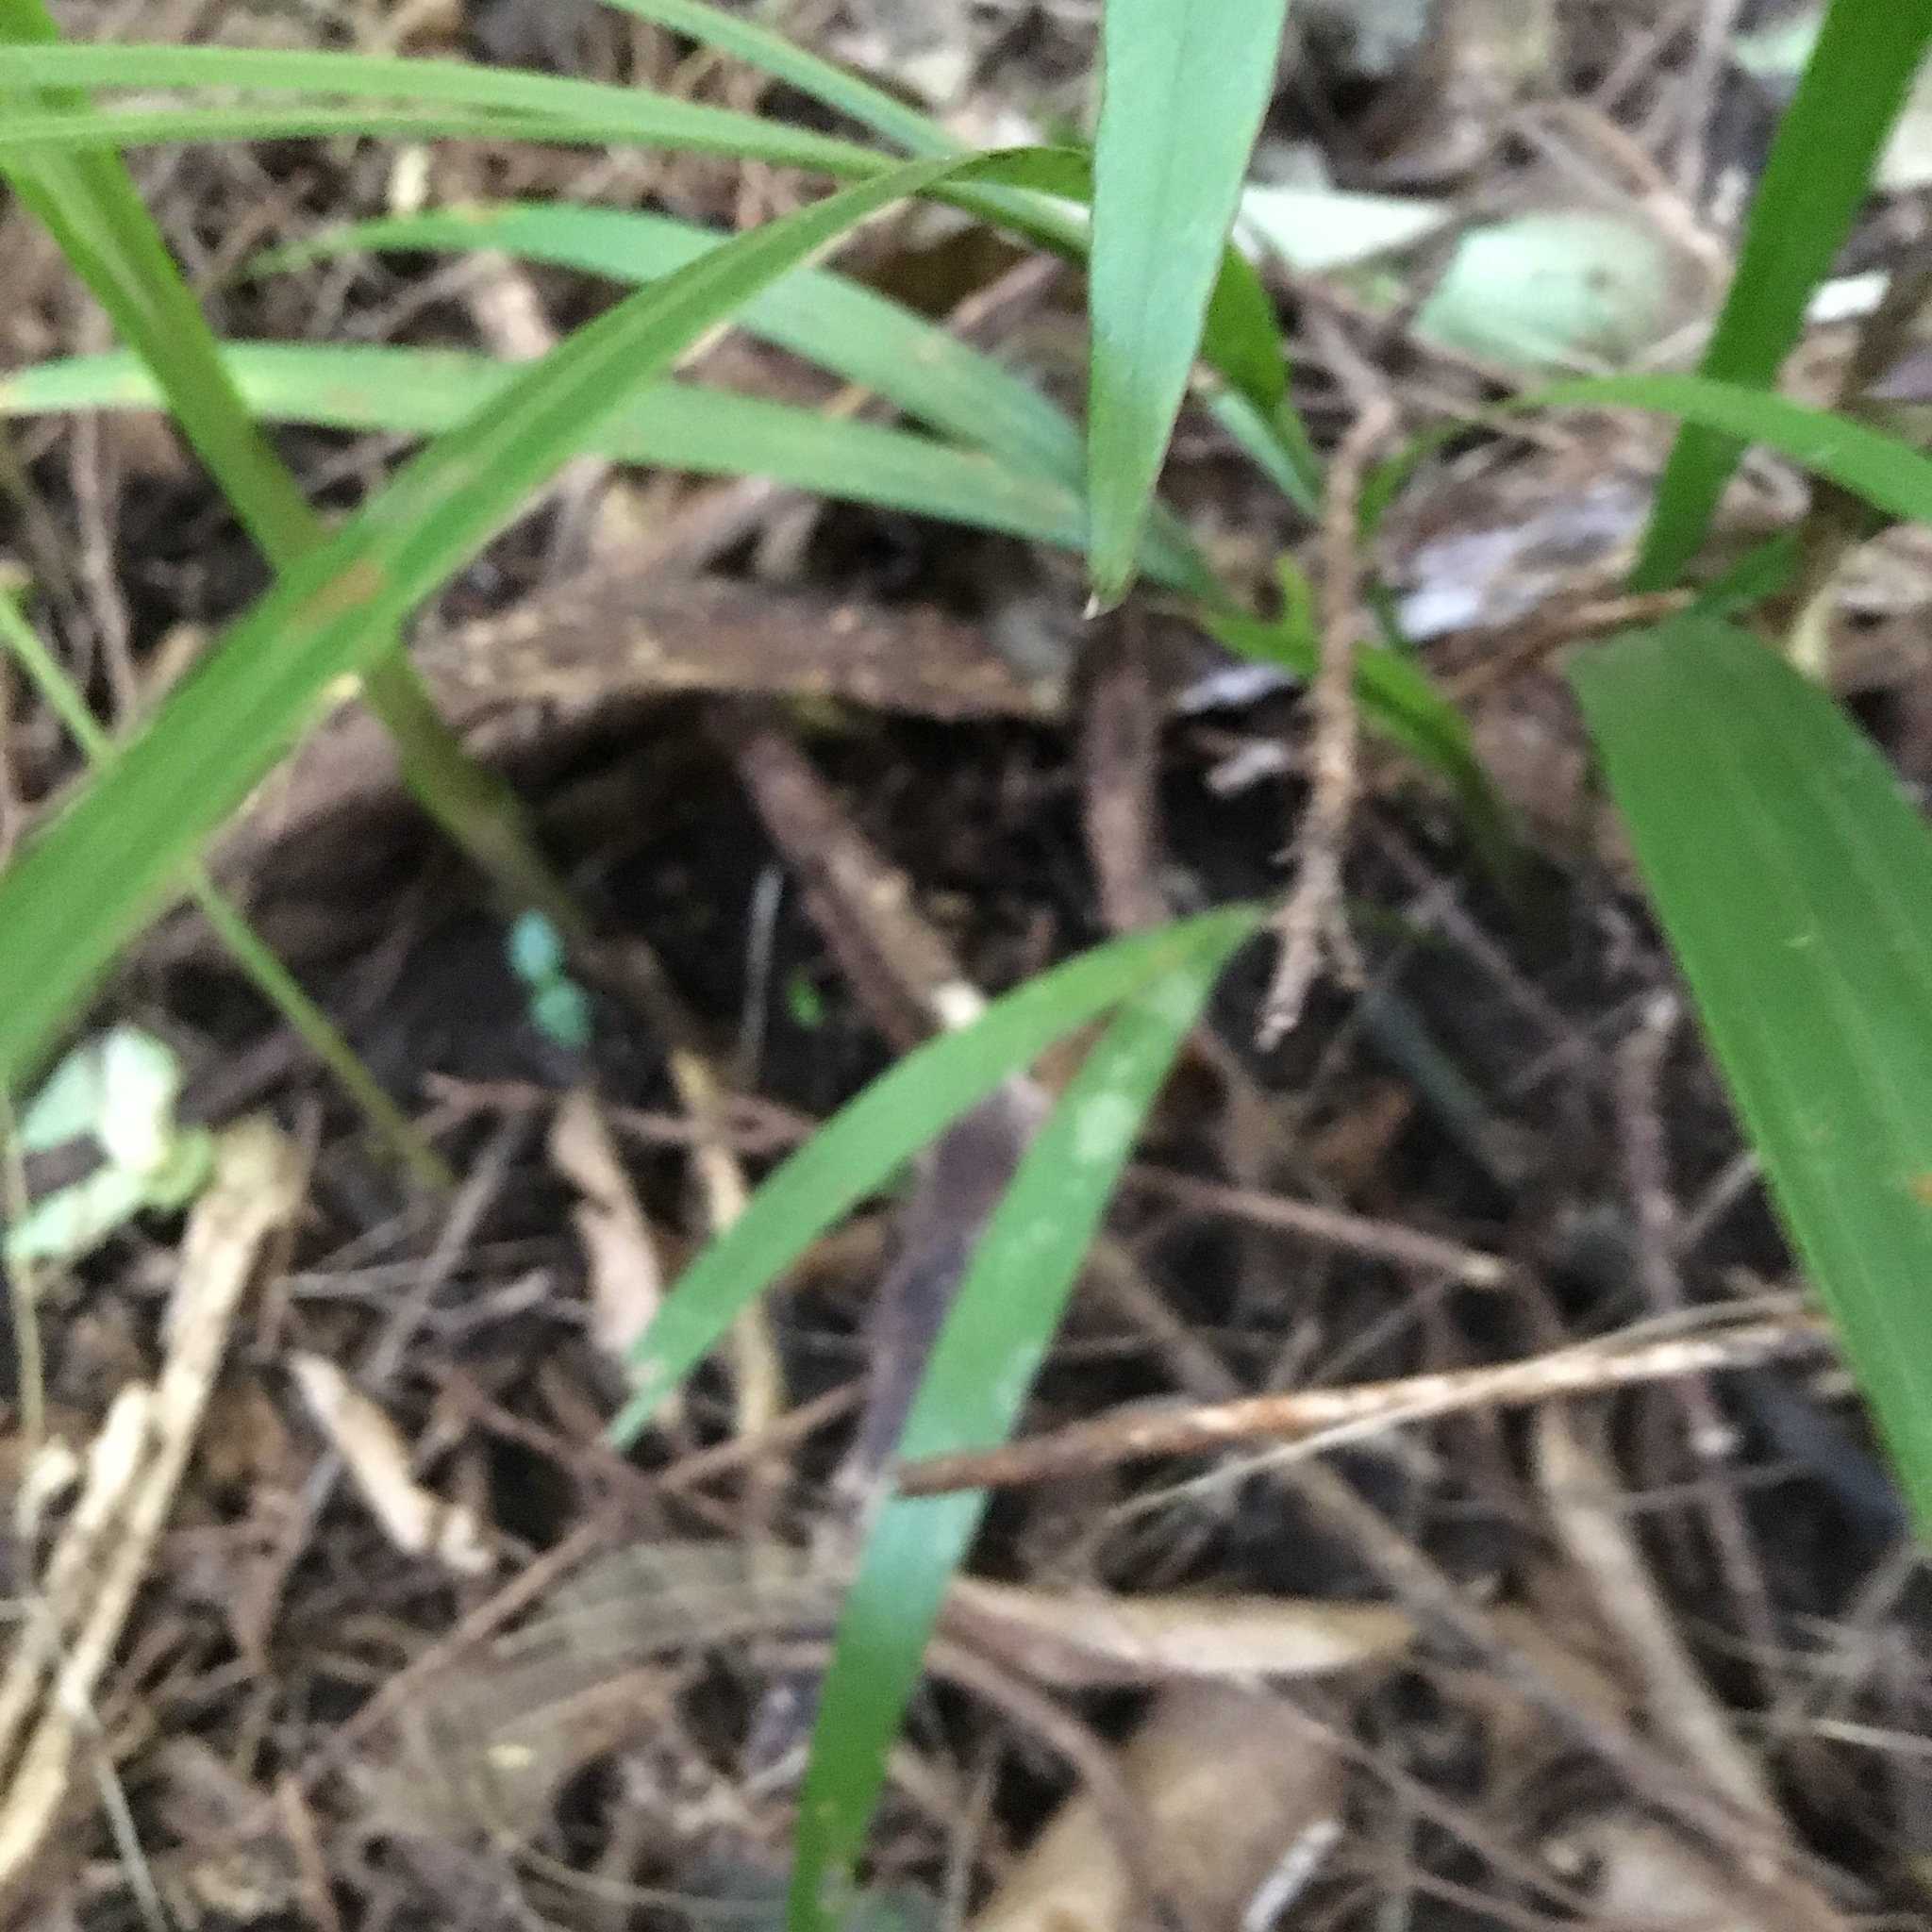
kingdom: Plantae
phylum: Tracheophyta
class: Liliopsida
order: Arecales
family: Arecaceae
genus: Rhopalostylis
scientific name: Rhopalostylis sapida
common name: Feather-duster palm
